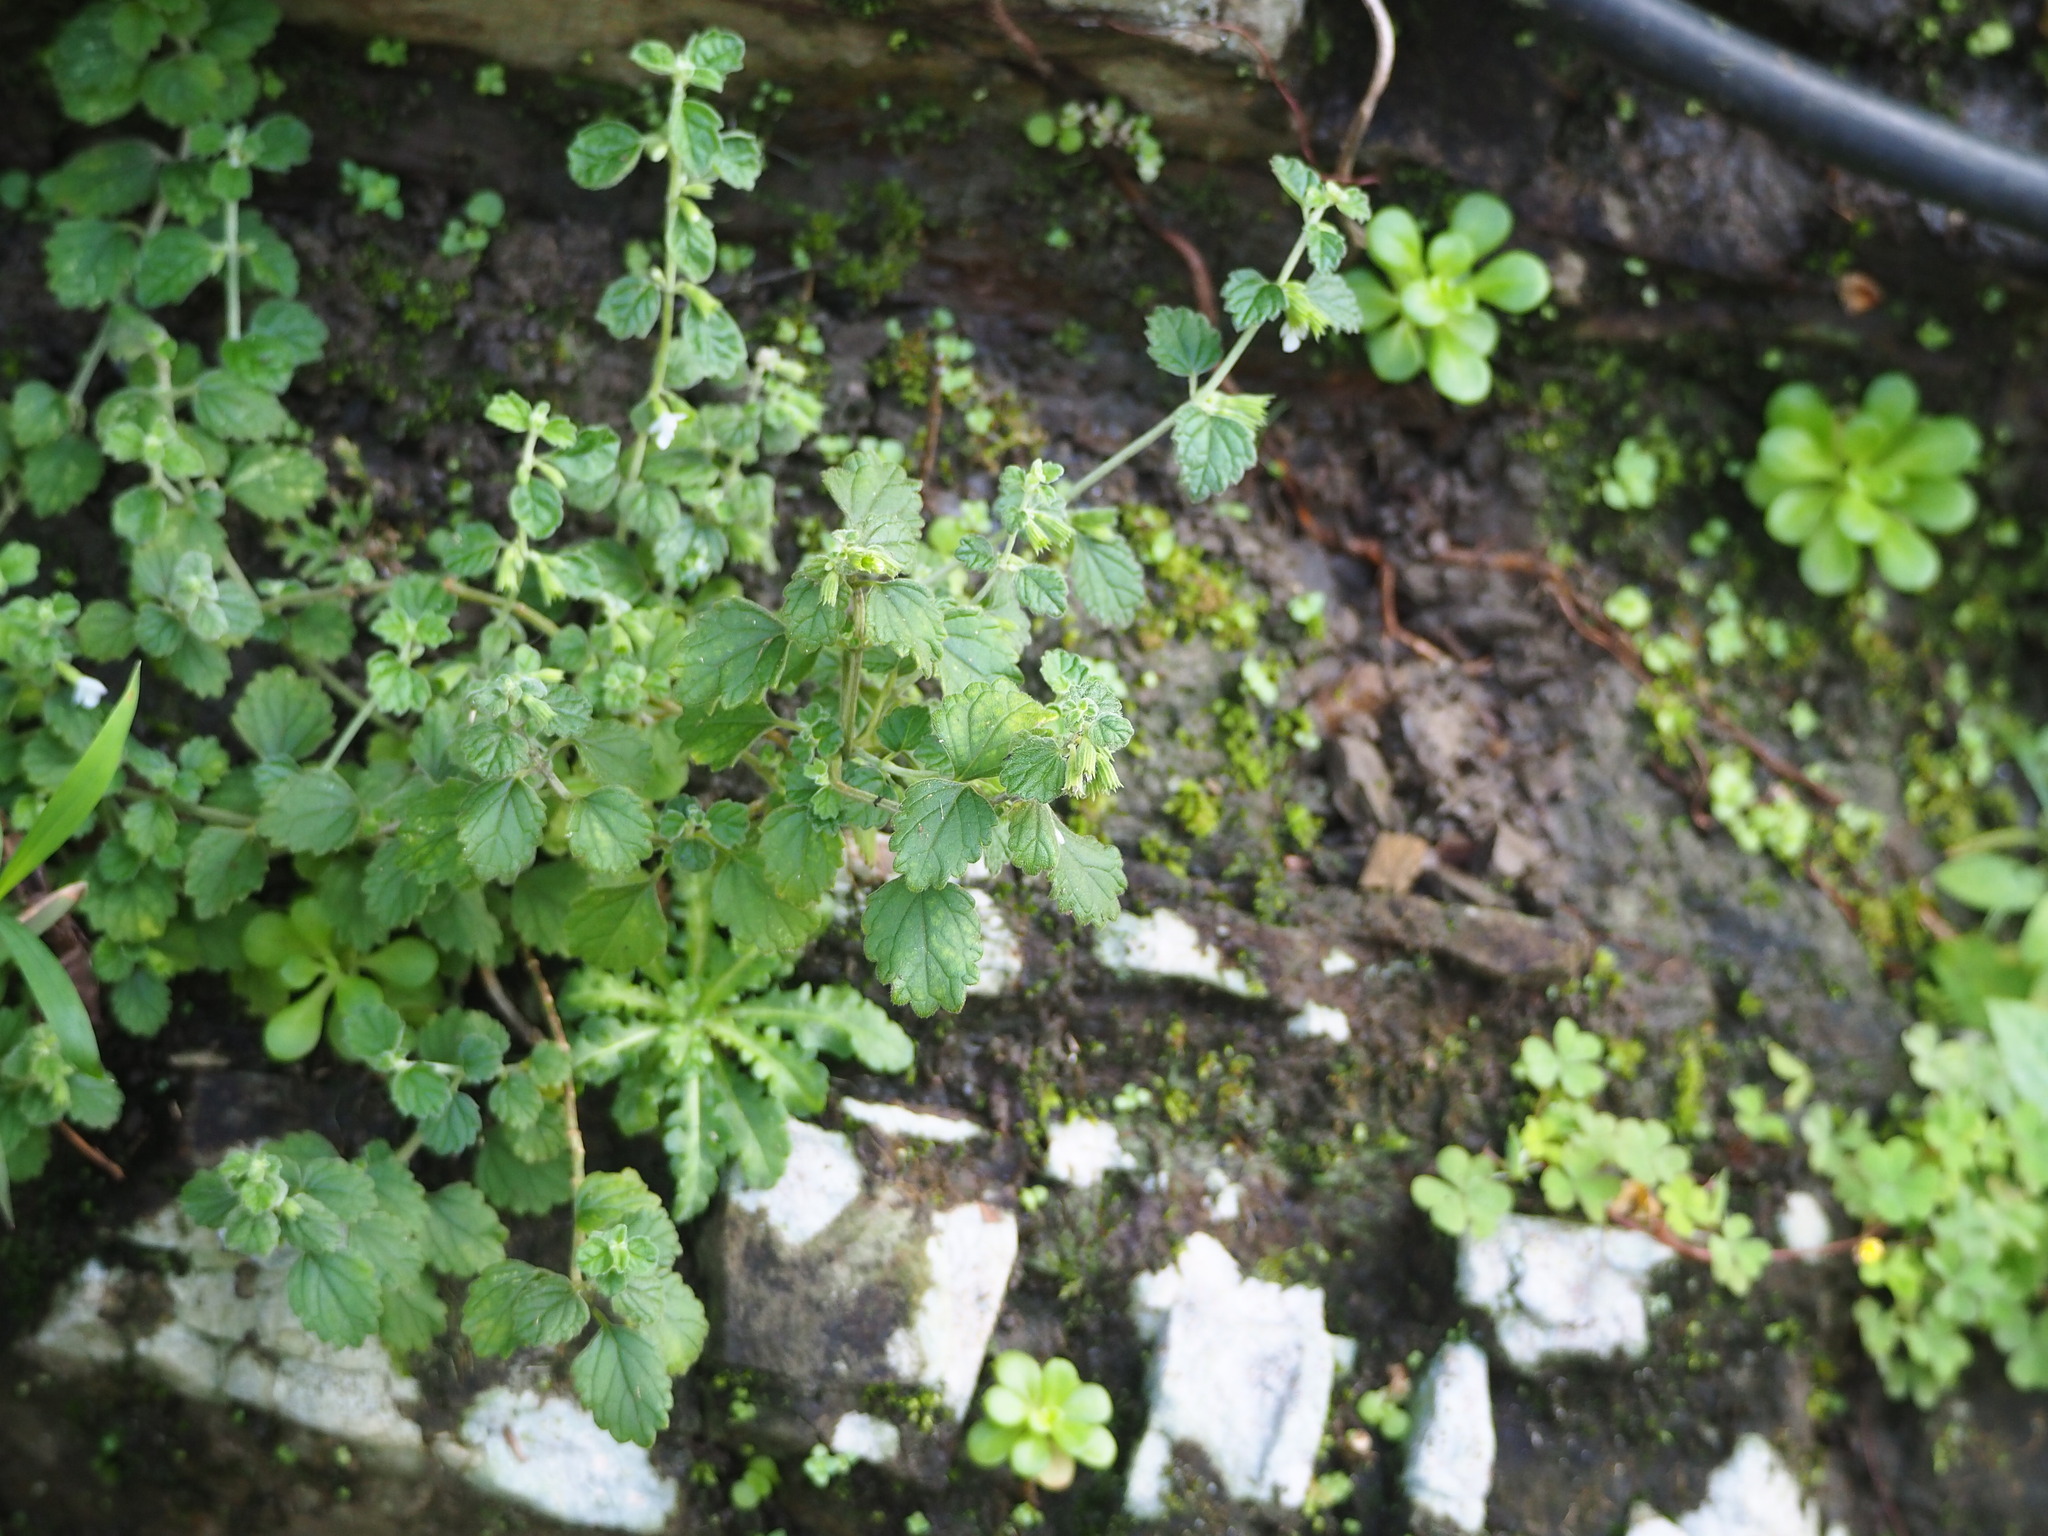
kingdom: Plantae
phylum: Tracheophyta
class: Magnoliopsida
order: Lamiales
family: Lamiaceae
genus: Leucas
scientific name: Leucas chinensis
